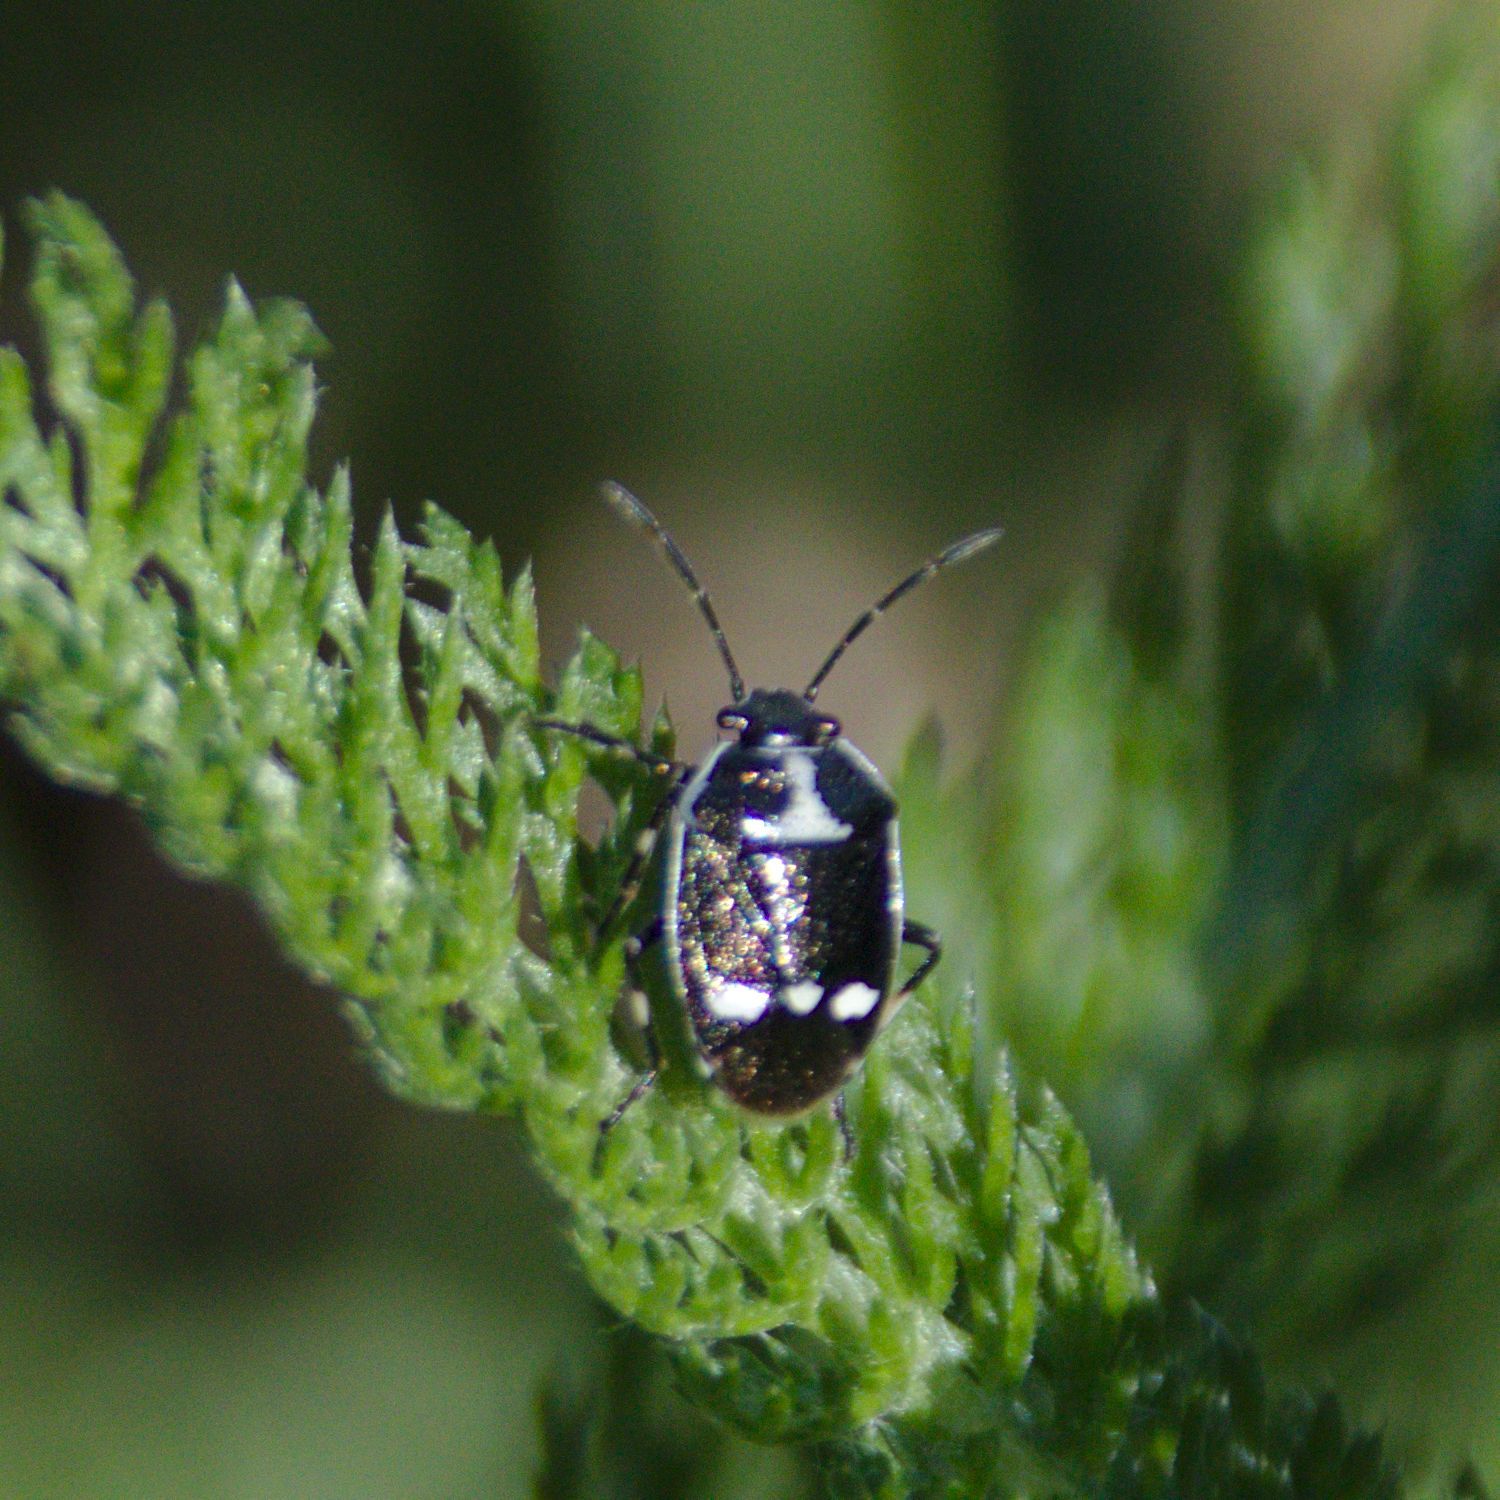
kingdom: Animalia
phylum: Arthropoda
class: Insecta
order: Hemiptera
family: Pentatomidae
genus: Eurydema
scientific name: Eurydema oleracea
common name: Cabbage bug
